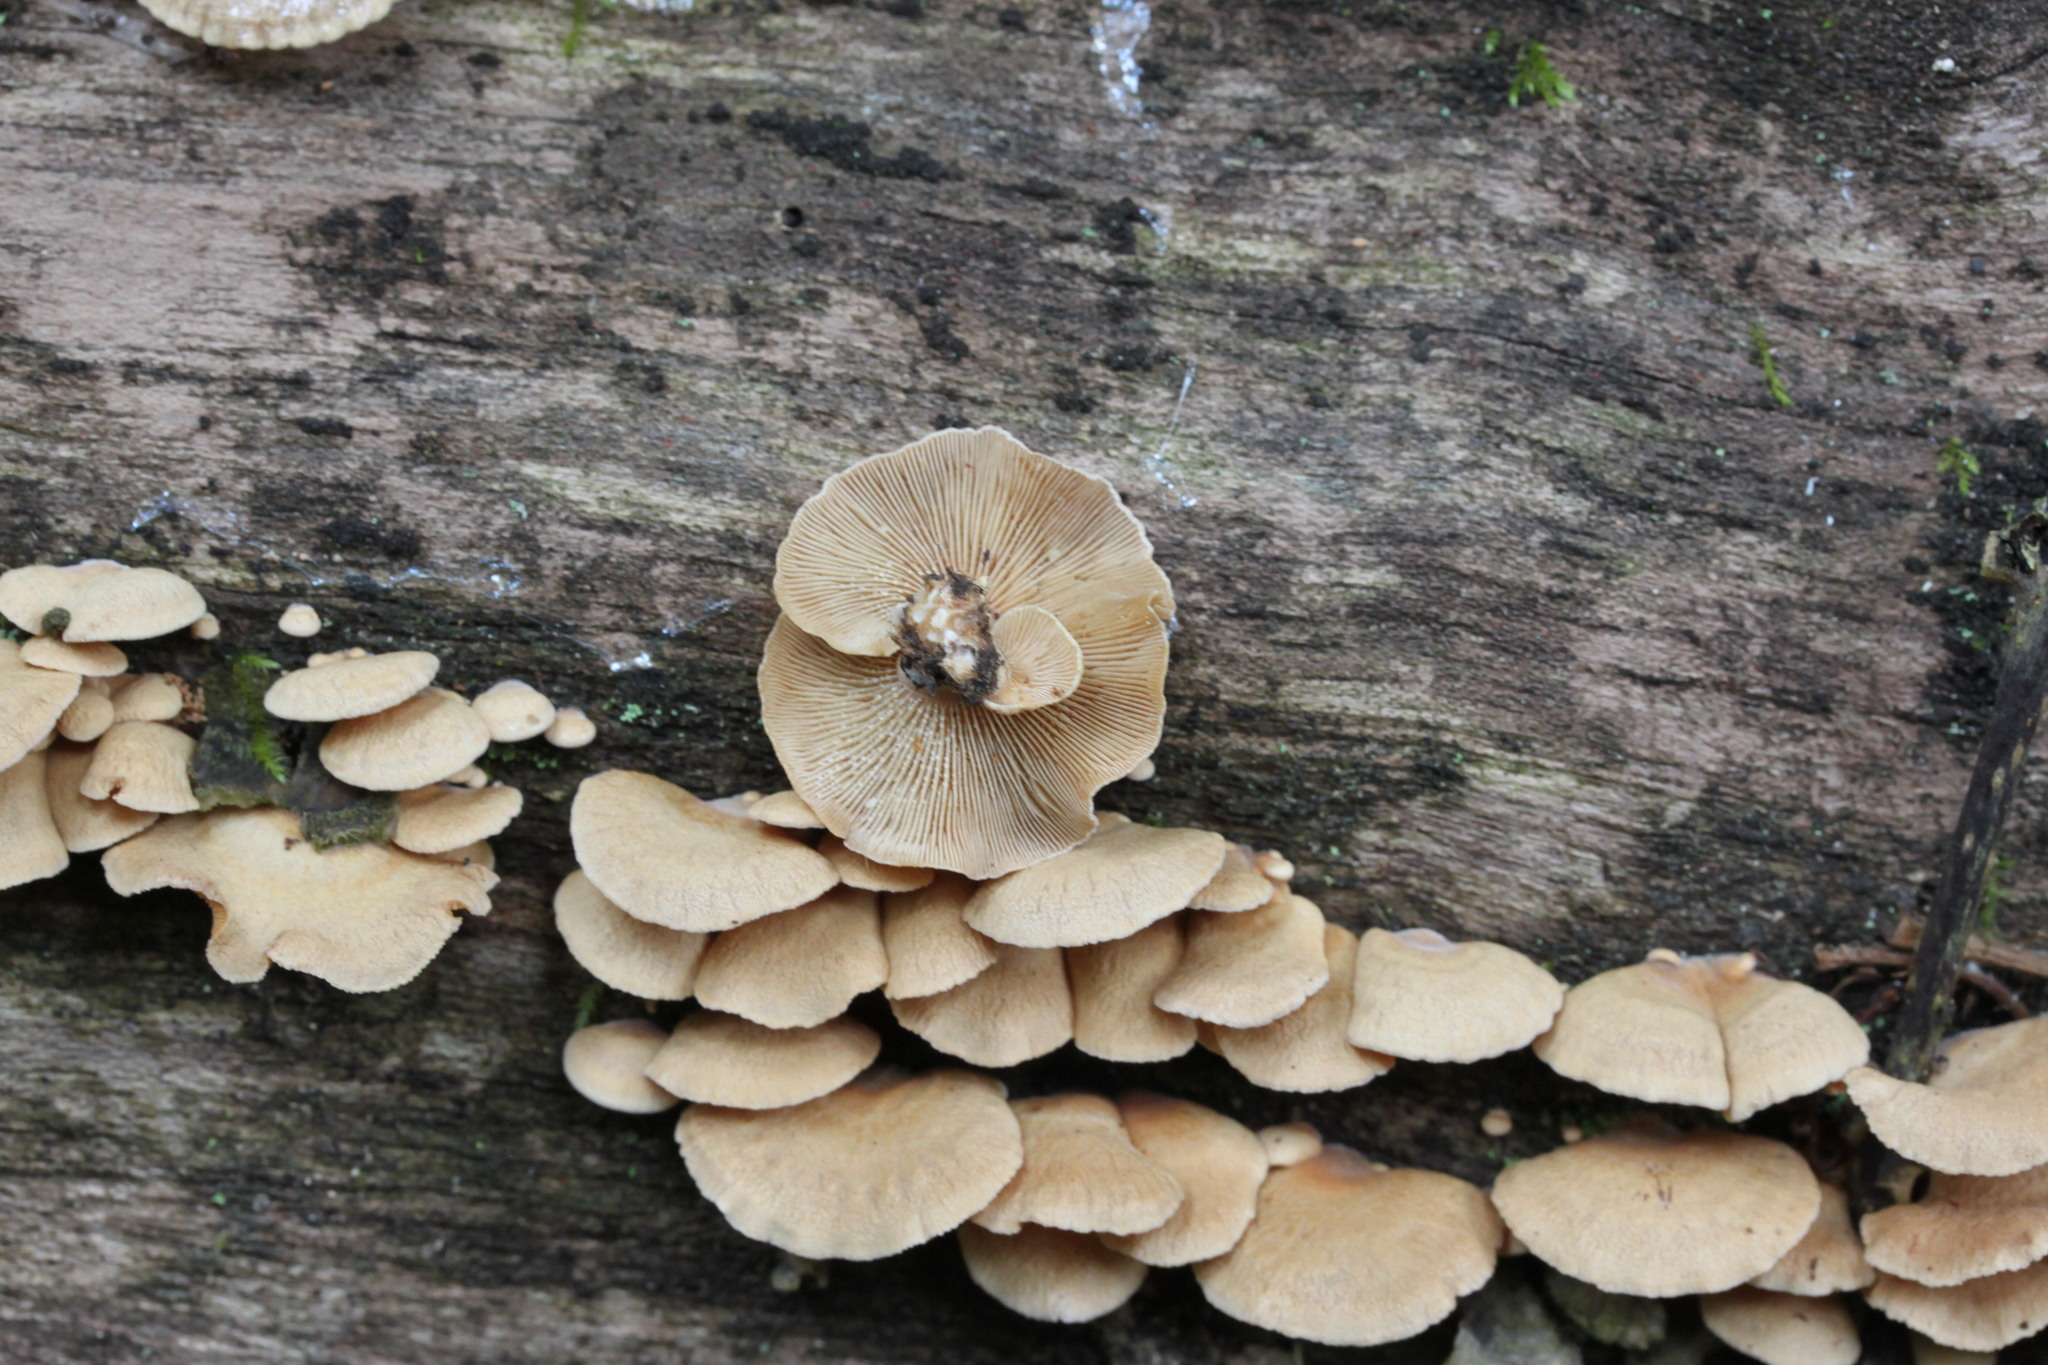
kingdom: Fungi
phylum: Basidiomycota
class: Agaricomycetes
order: Agaricales
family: Mycenaceae
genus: Panellus
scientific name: Panellus stipticus
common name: Bitter oysterling
